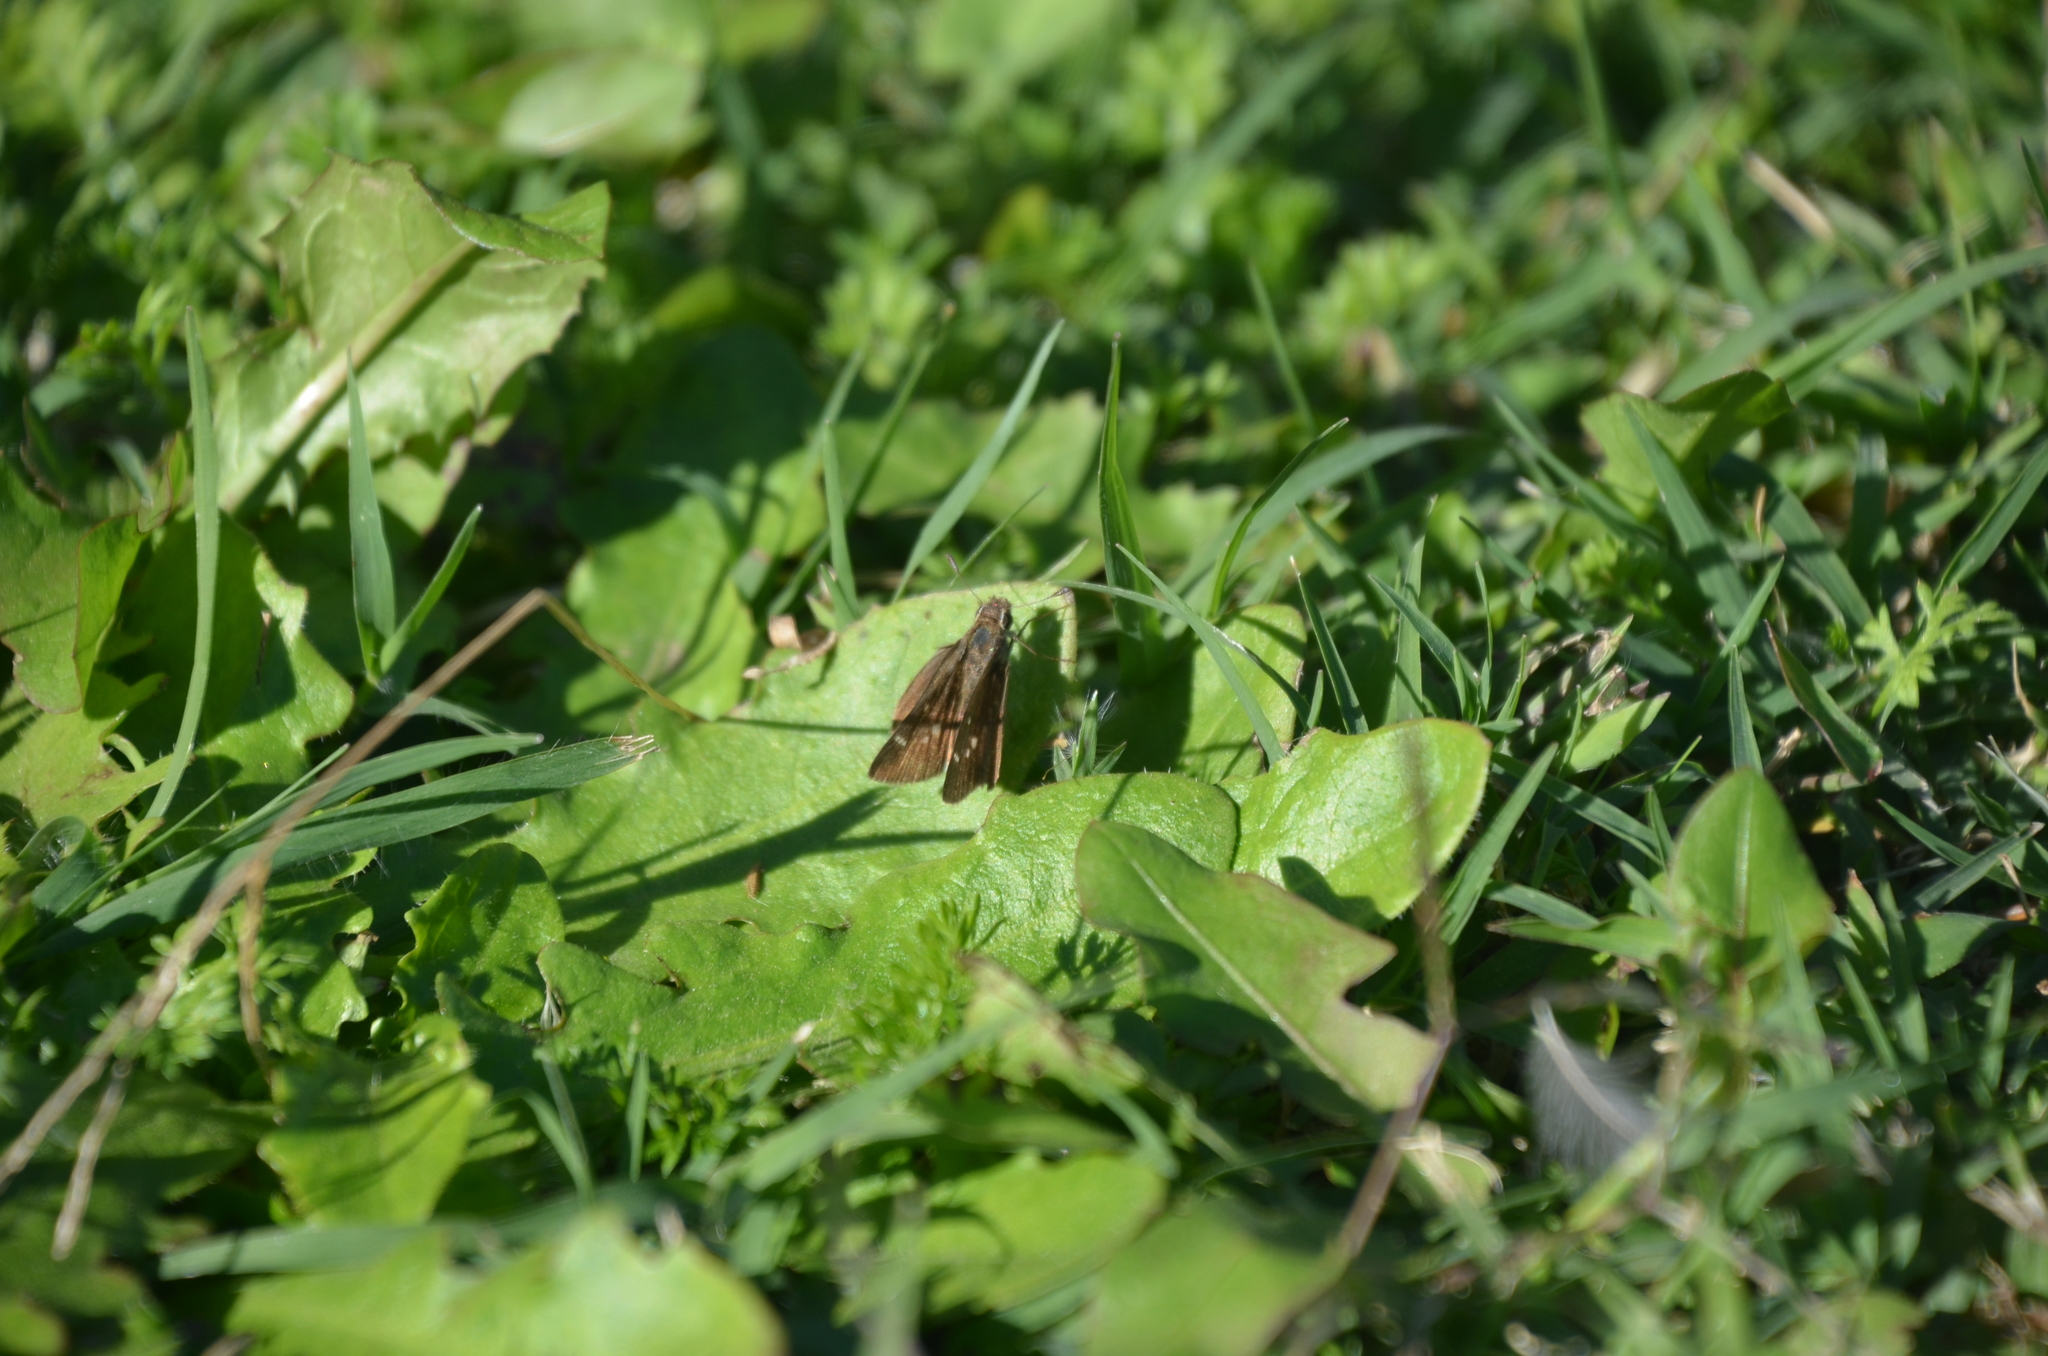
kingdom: Animalia
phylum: Arthropoda
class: Insecta
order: Lepidoptera
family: Hesperiidae
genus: Lerodea
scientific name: Lerodea eufala
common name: Eufala skipper
